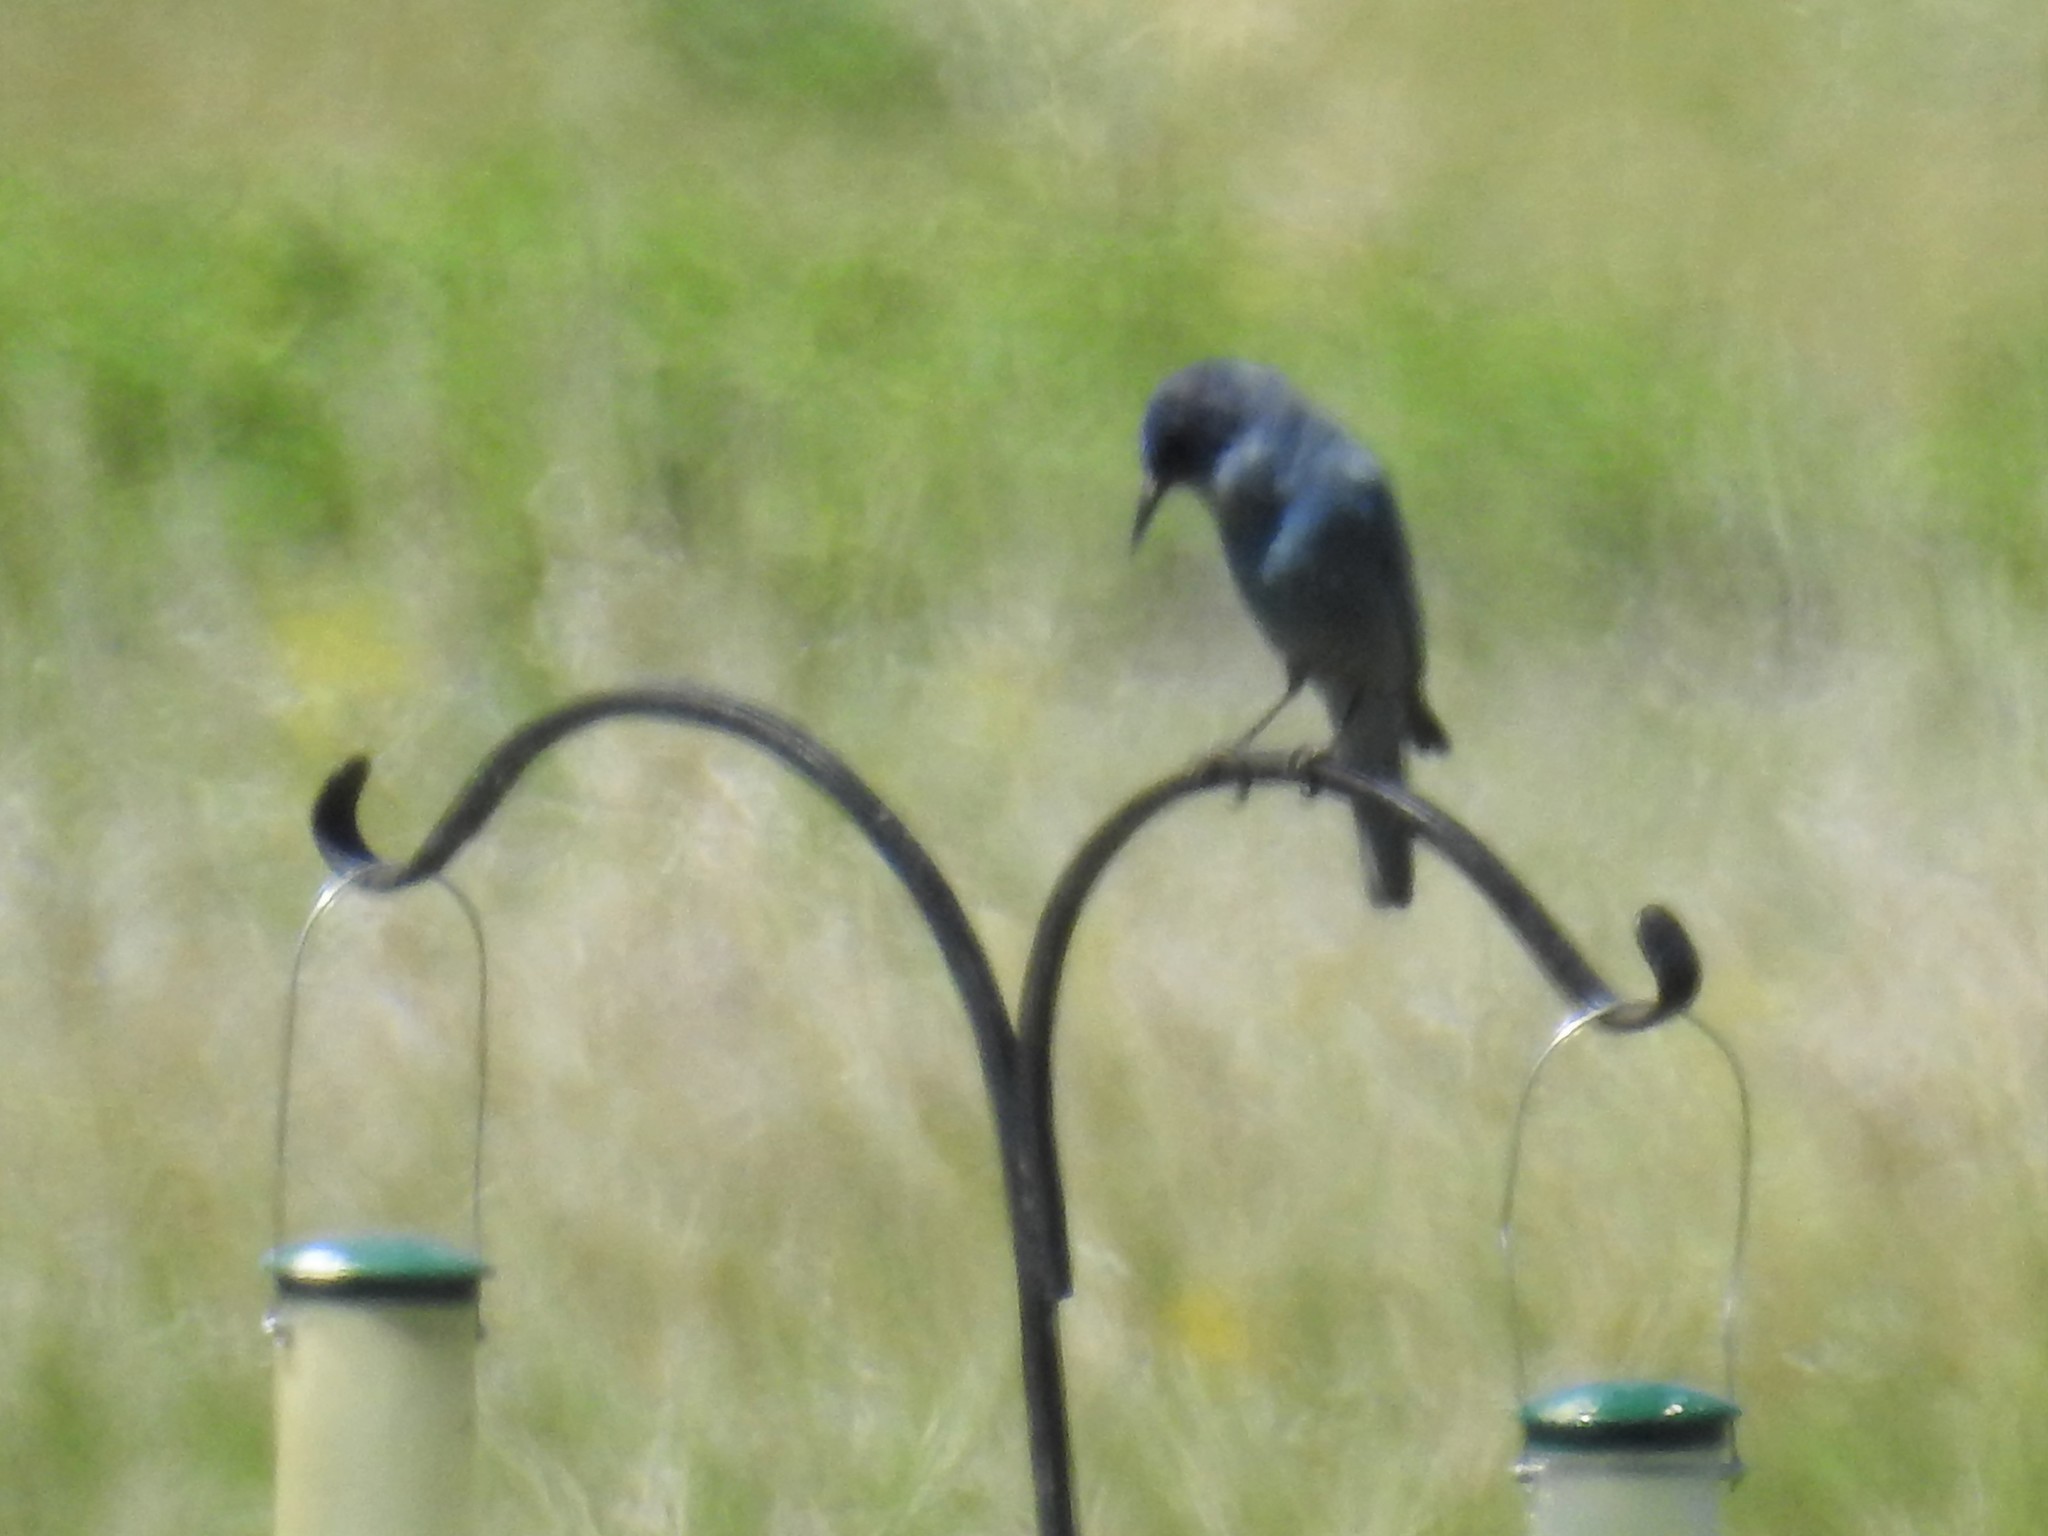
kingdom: Animalia
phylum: Chordata
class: Aves
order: Passeriformes
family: Corvidae
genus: Gymnorhinus
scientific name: Gymnorhinus cyanocephalus
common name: Pinyon jay
